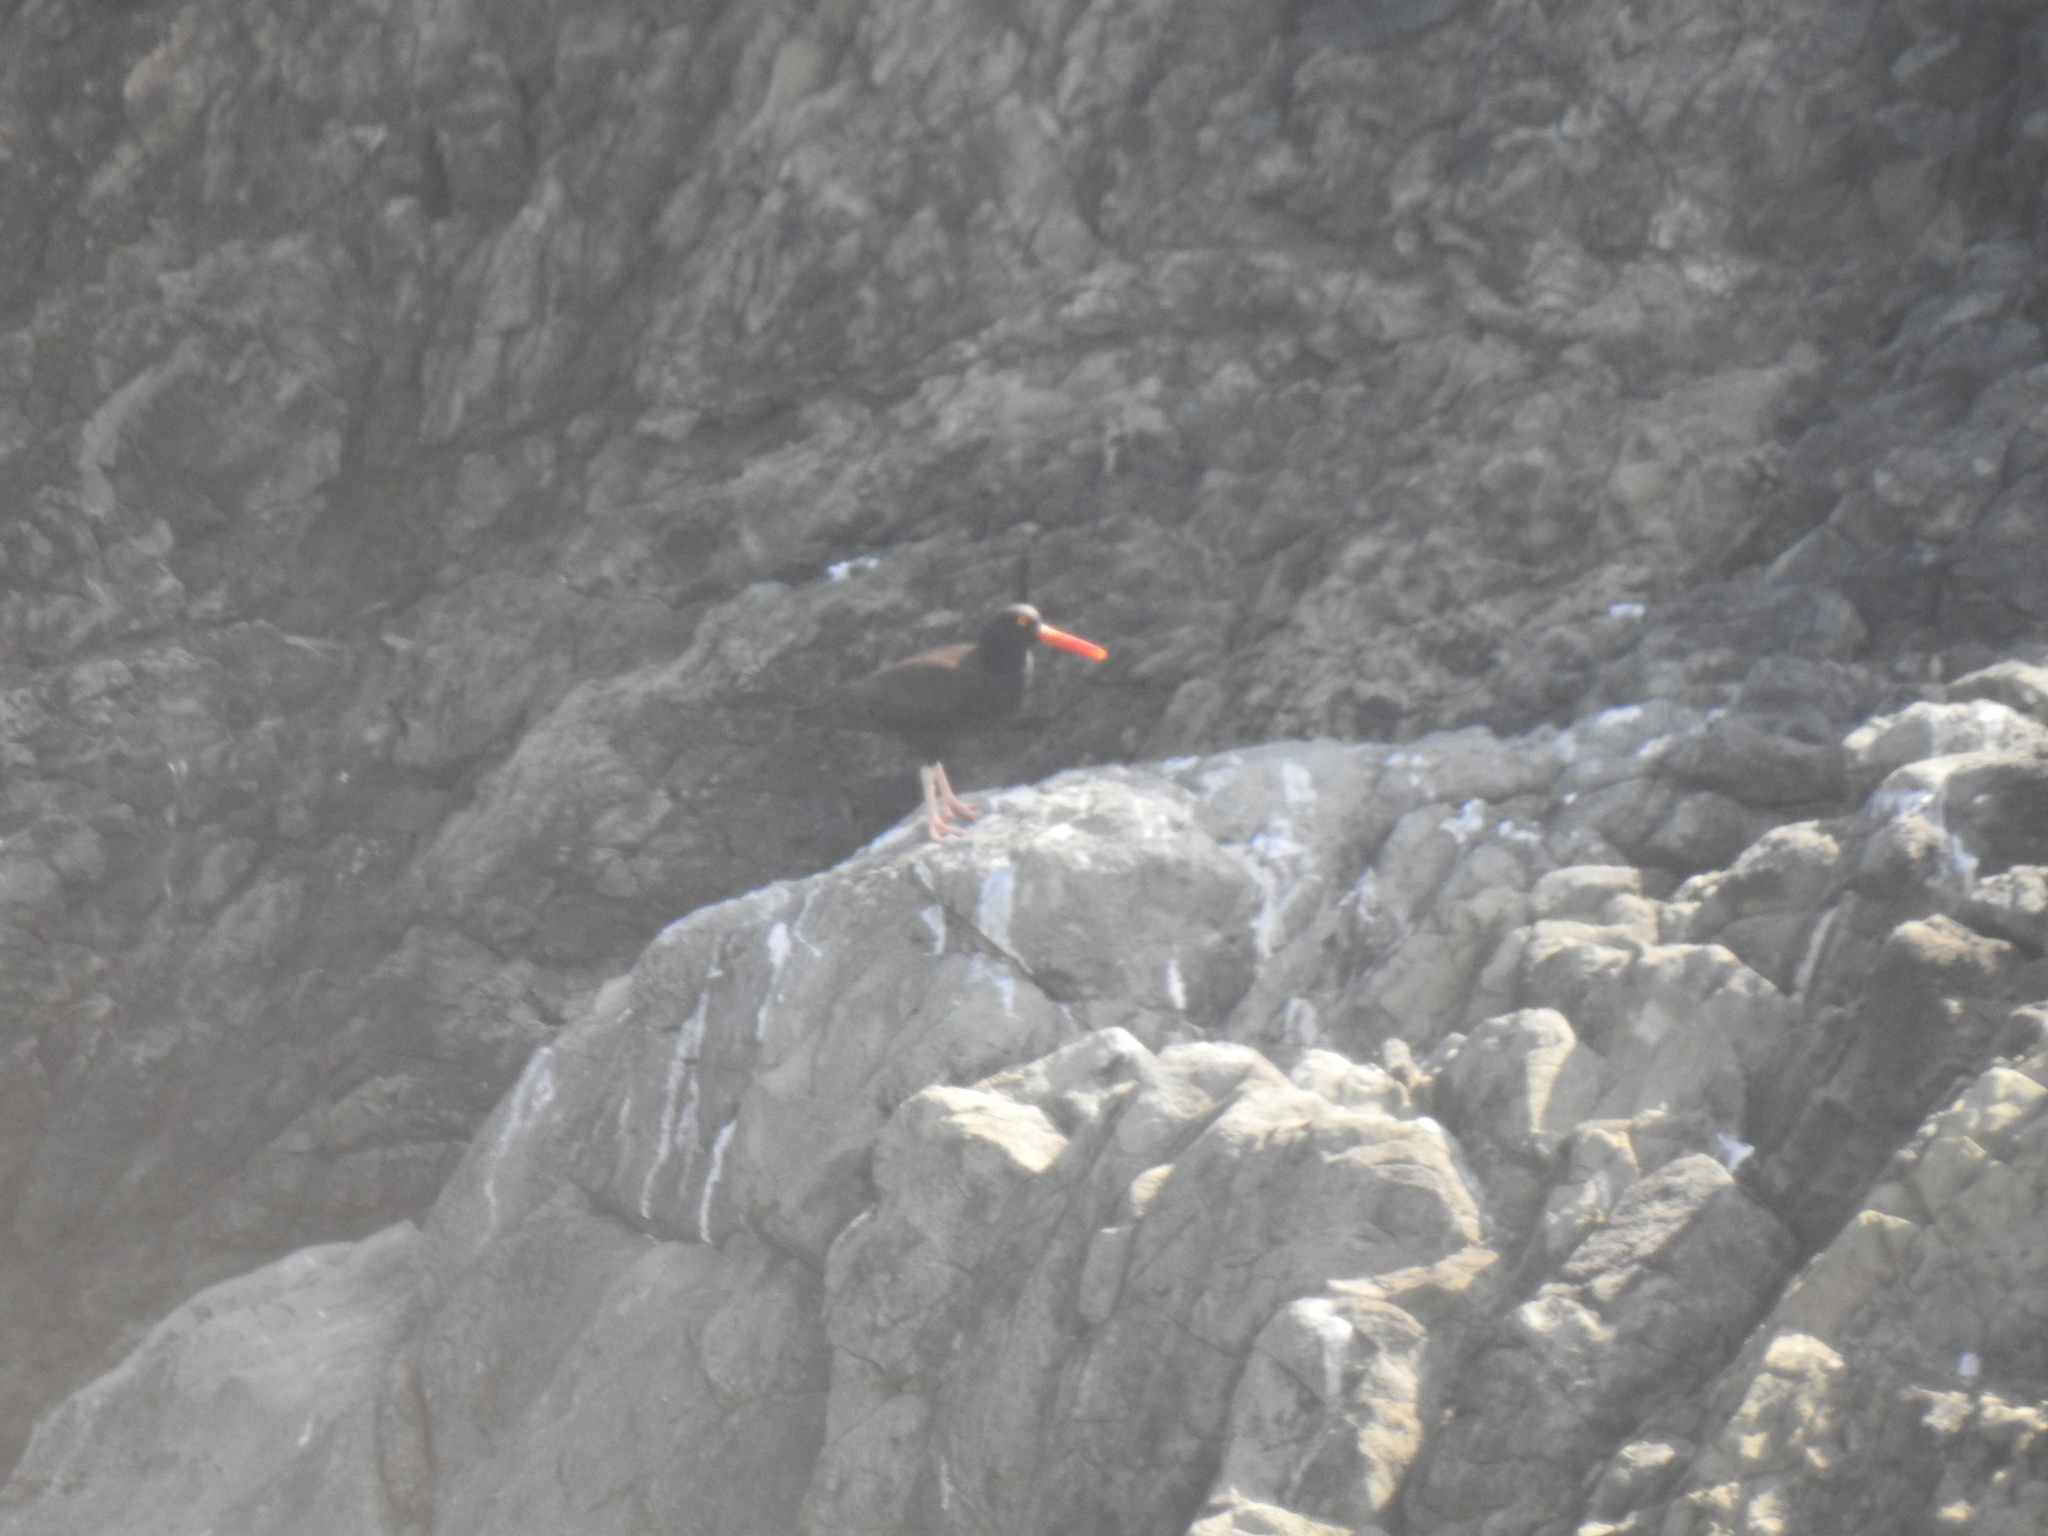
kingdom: Animalia
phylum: Chordata
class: Aves
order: Charadriiformes
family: Haematopodidae
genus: Haematopus
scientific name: Haematopus bachmani
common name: Black oystercatcher
